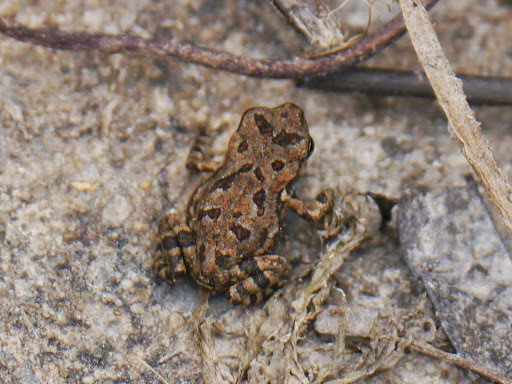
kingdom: Animalia
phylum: Chordata
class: Amphibia
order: Anura
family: Bufonidae
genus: Anaxyrus
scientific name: Anaxyrus fowleri
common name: Fowler's toad
